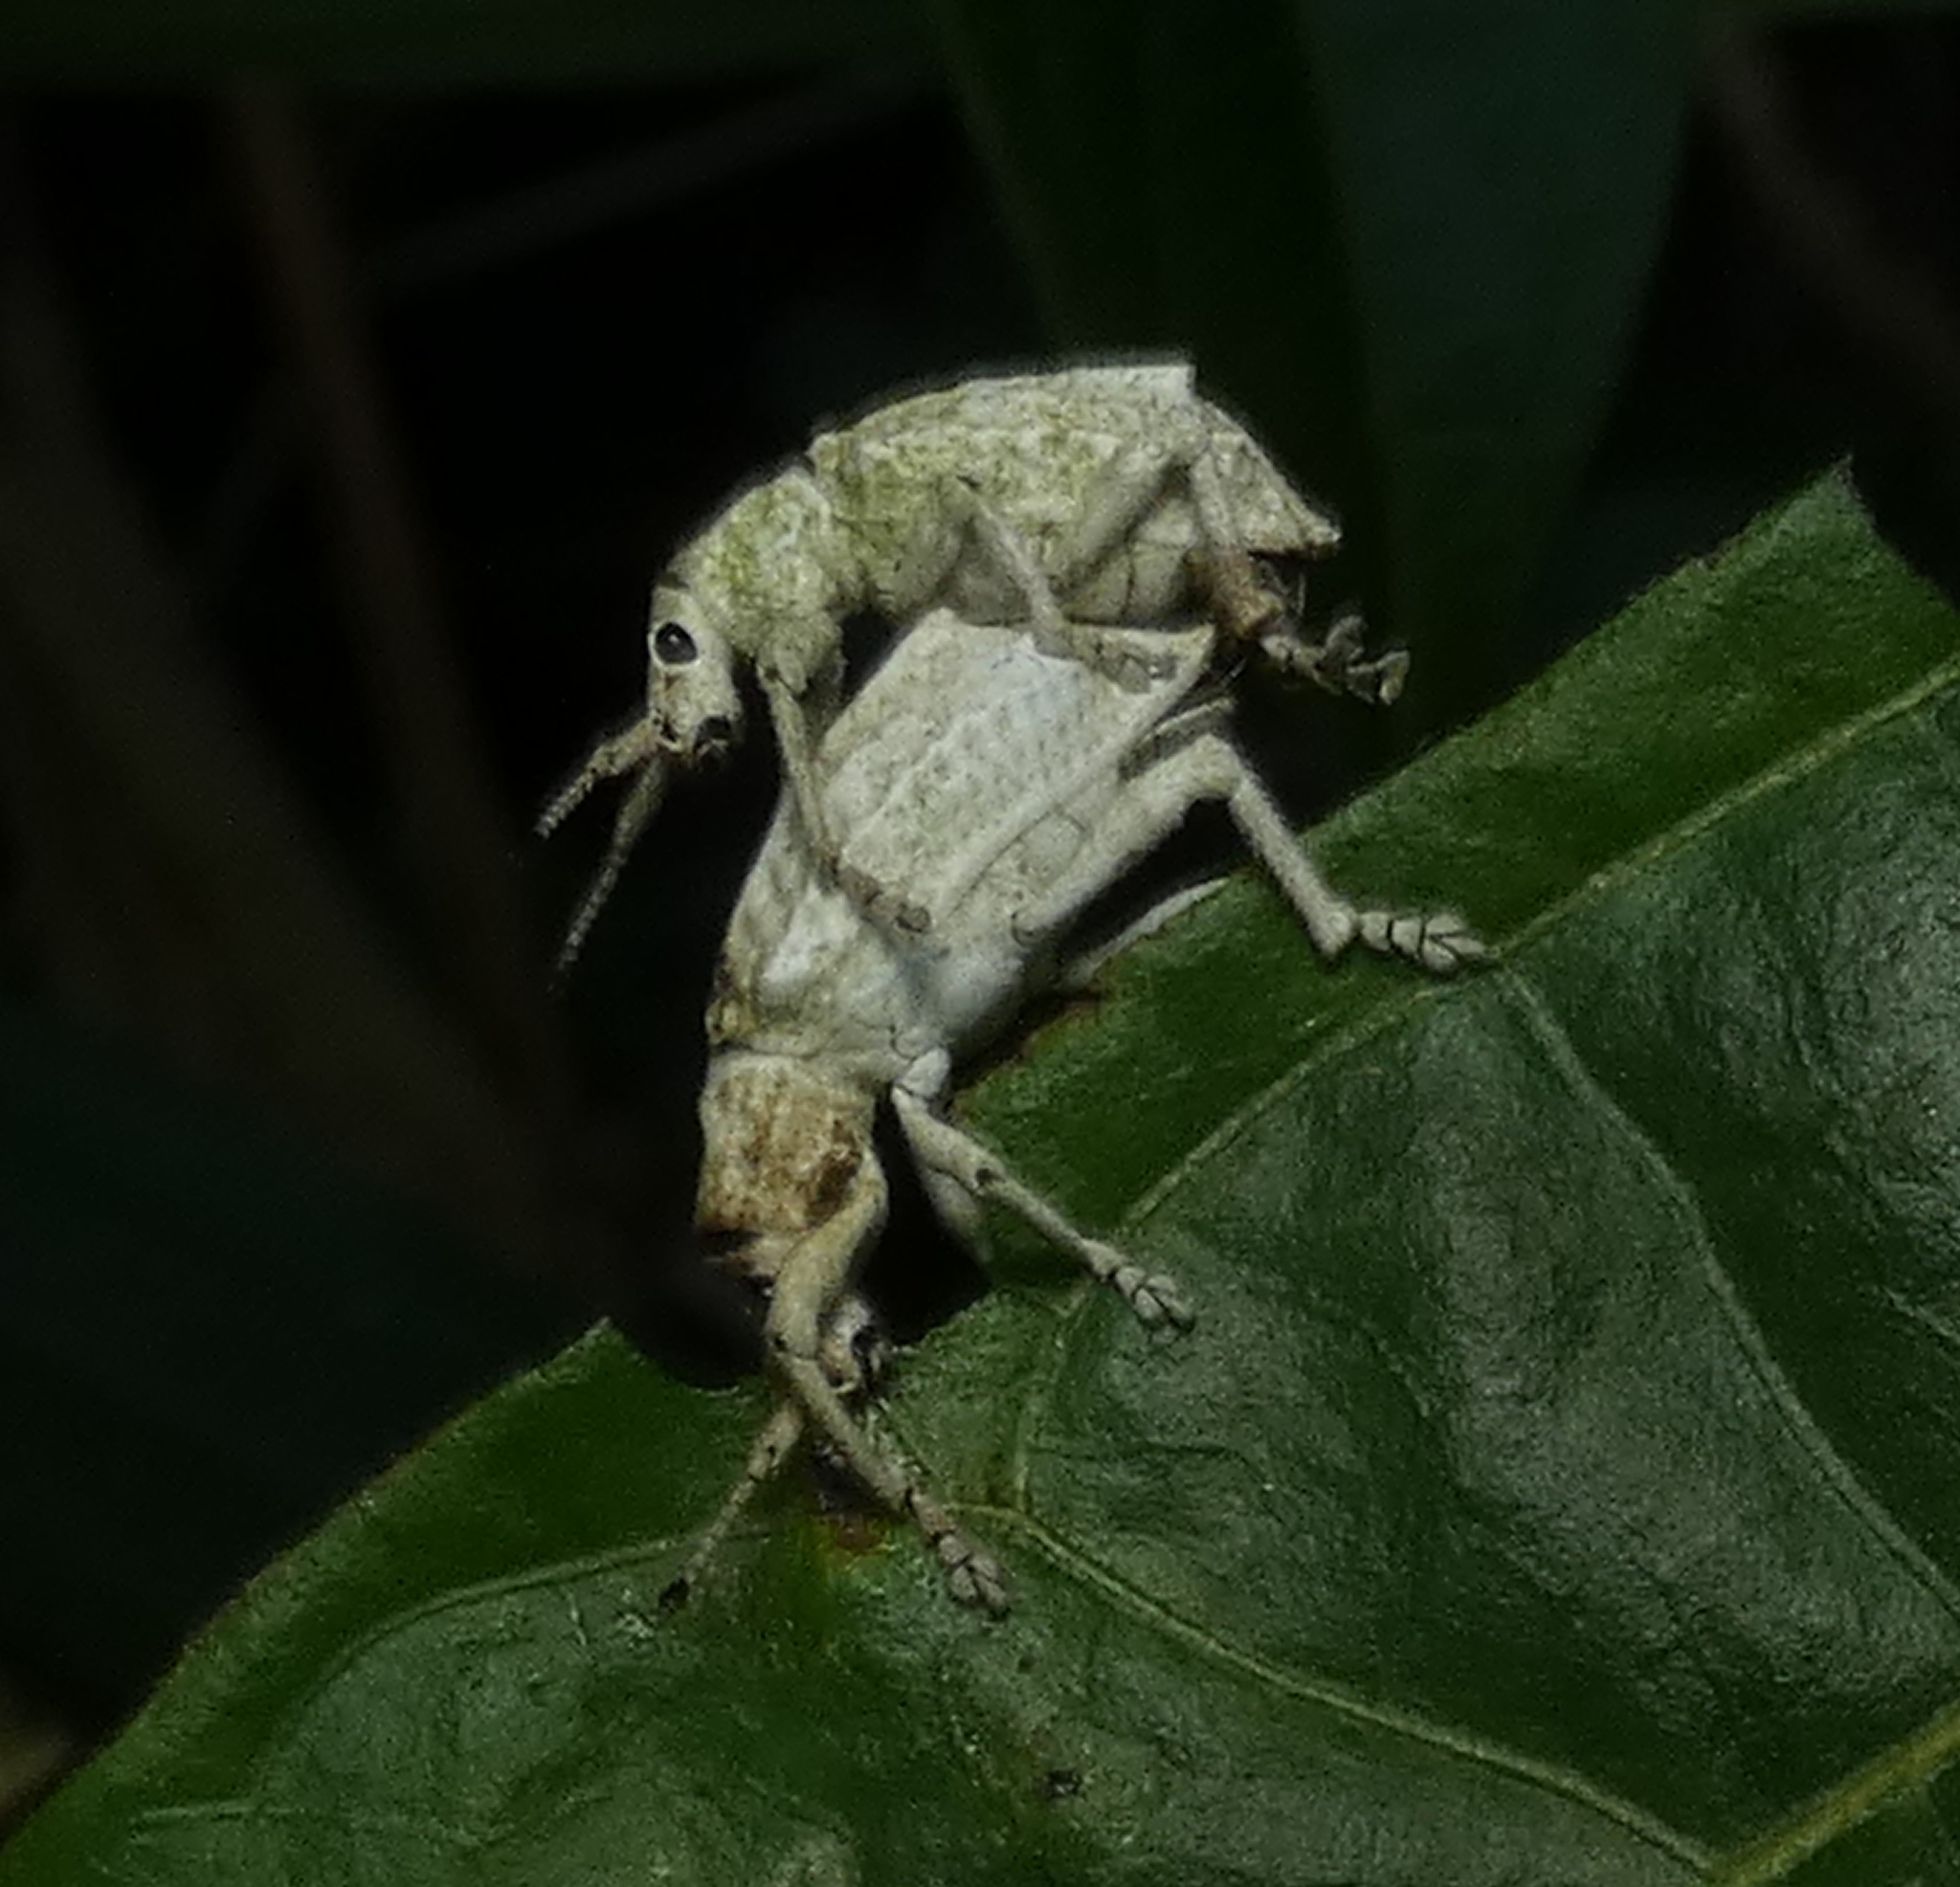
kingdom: Animalia
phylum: Arthropoda
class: Insecta
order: Coleoptera
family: Curculionidae
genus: Compsus
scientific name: Compsus niveus
